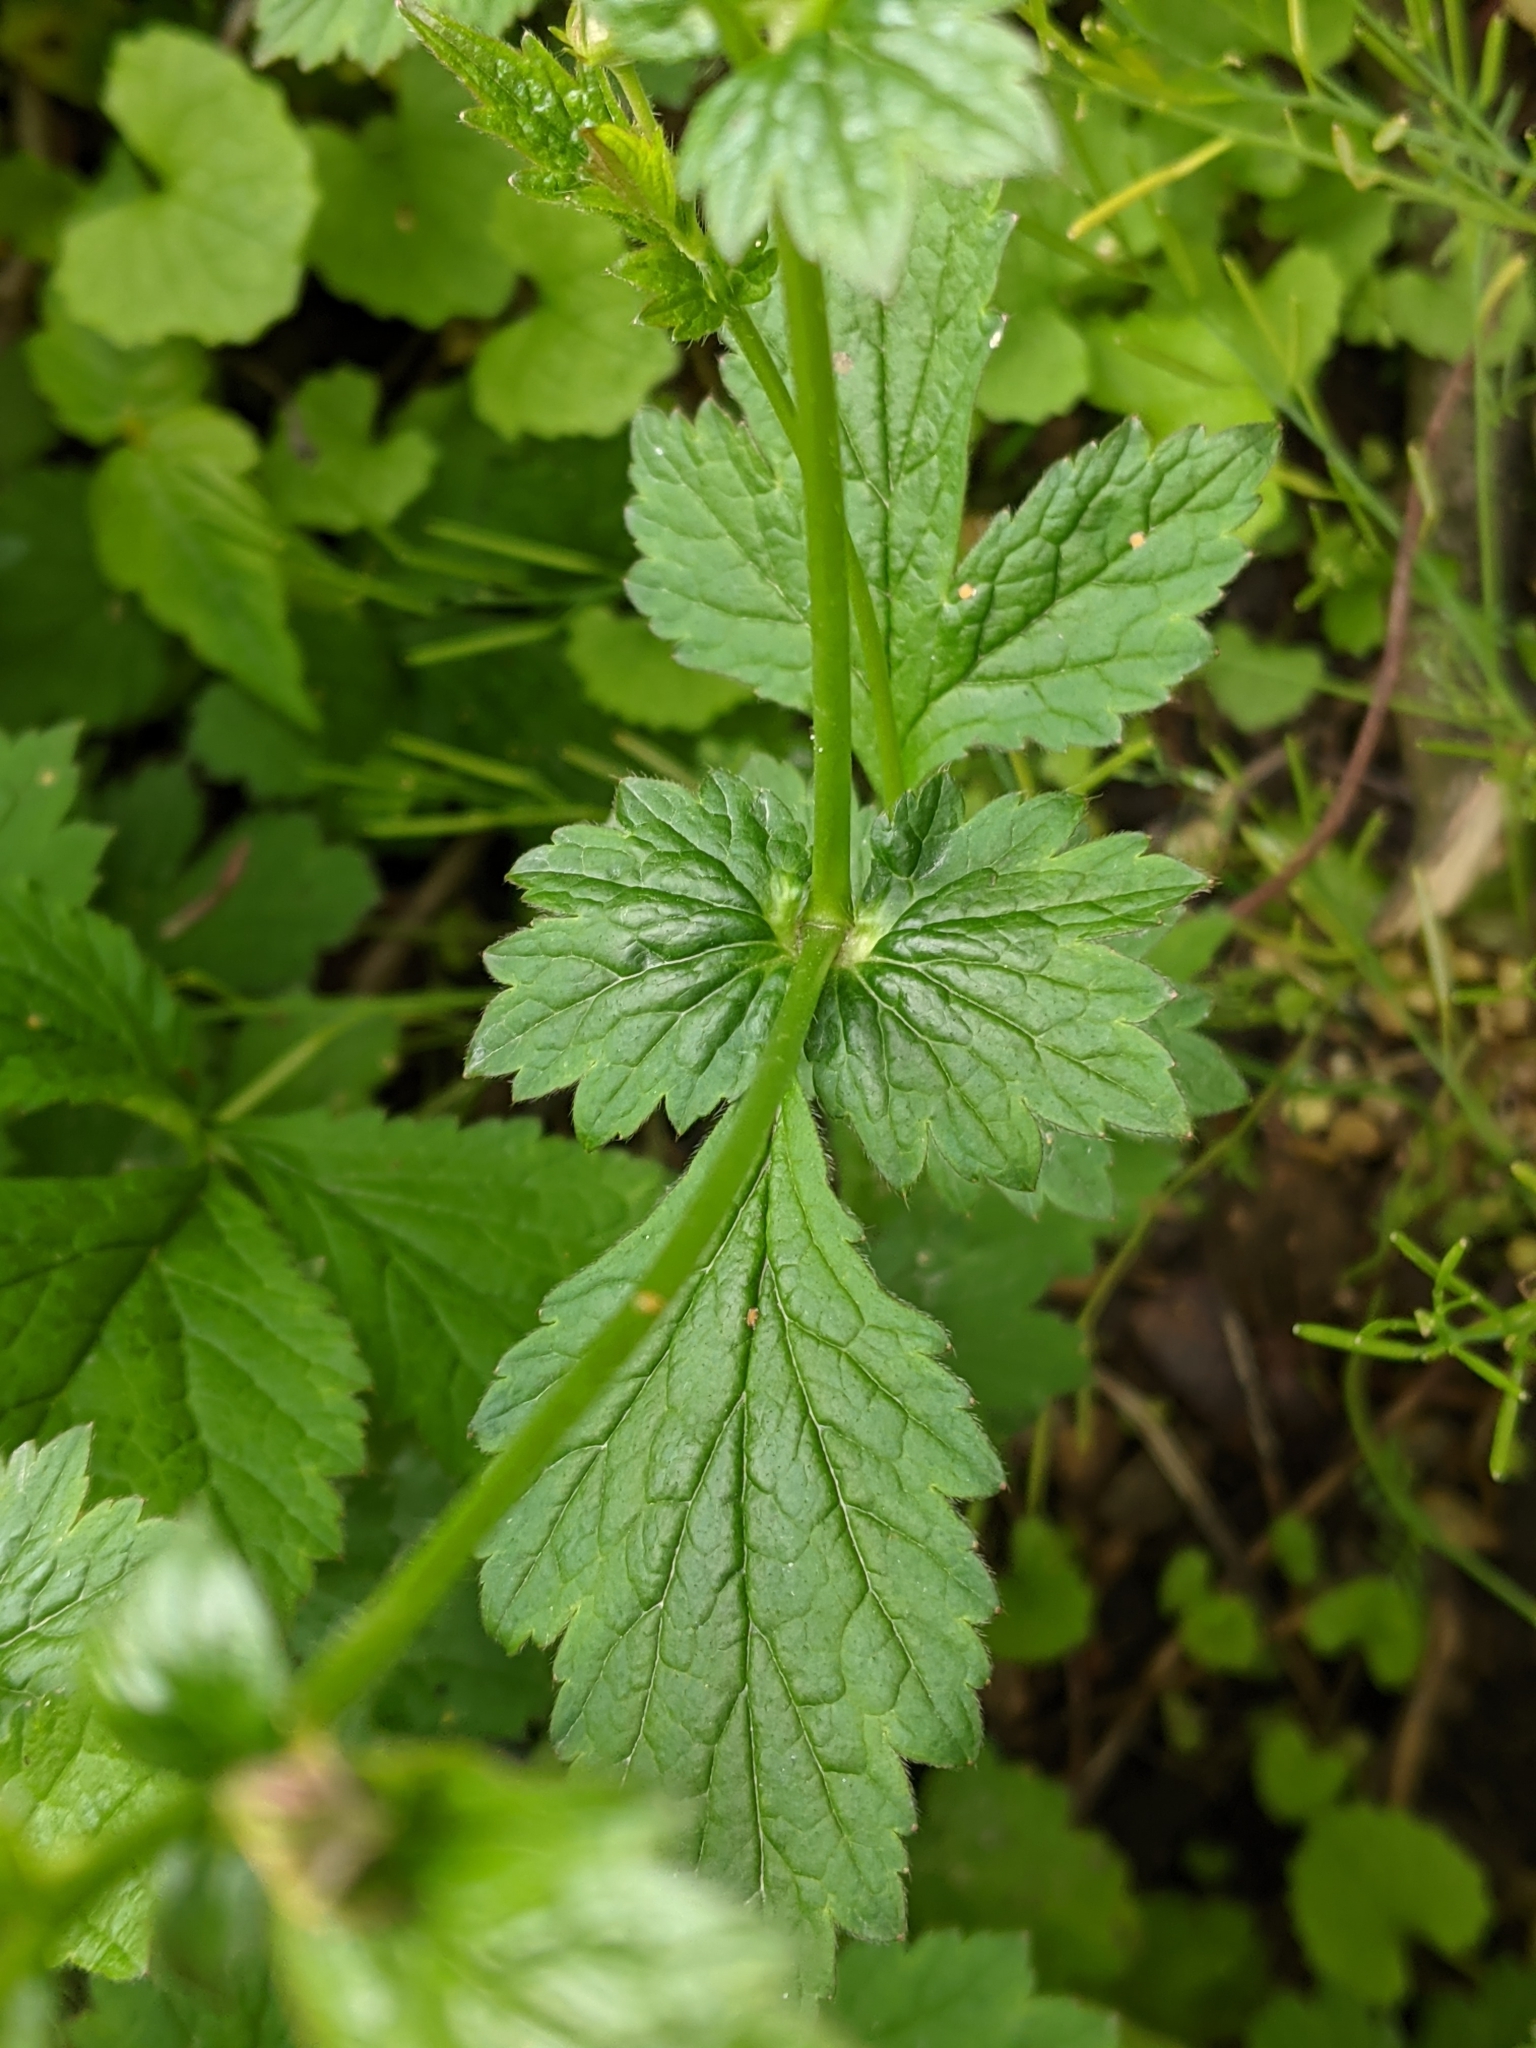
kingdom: Plantae
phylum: Tracheophyta
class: Magnoliopsida
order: Rosales
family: Rosaceae
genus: Geum
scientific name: Geum urbanum
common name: Wood avens
